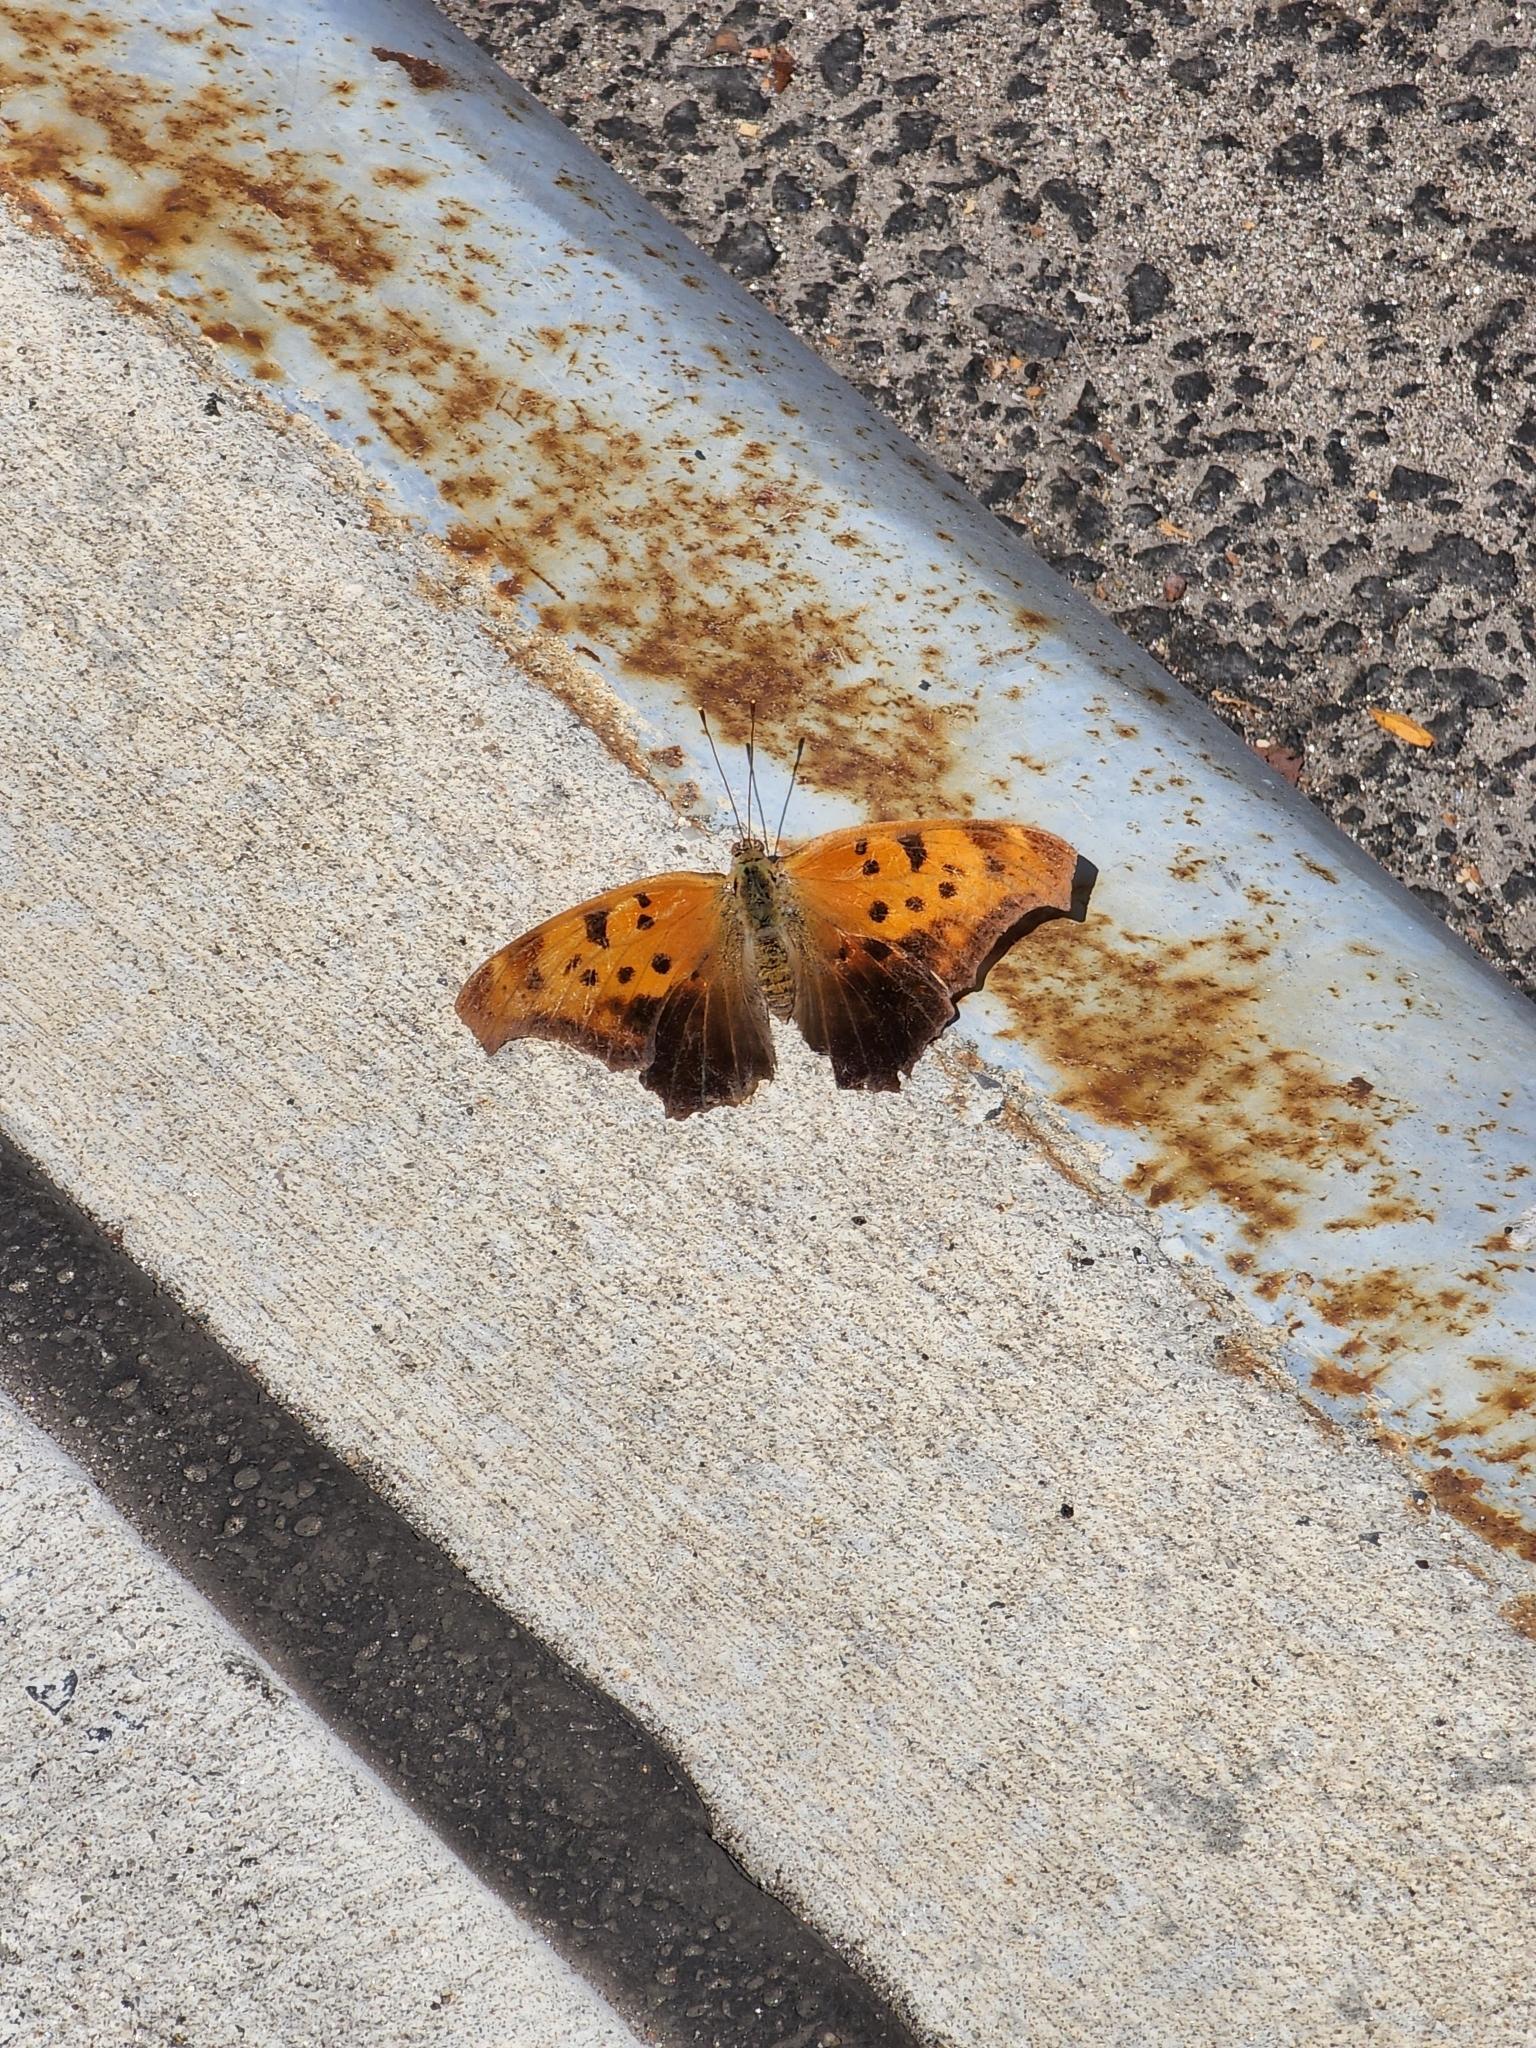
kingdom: Animalia
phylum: Arthropoda
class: Insecta
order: Lepidoptera
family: Nymphalidae
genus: Polygonia
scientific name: Polygonia interrogationis
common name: Question mark
